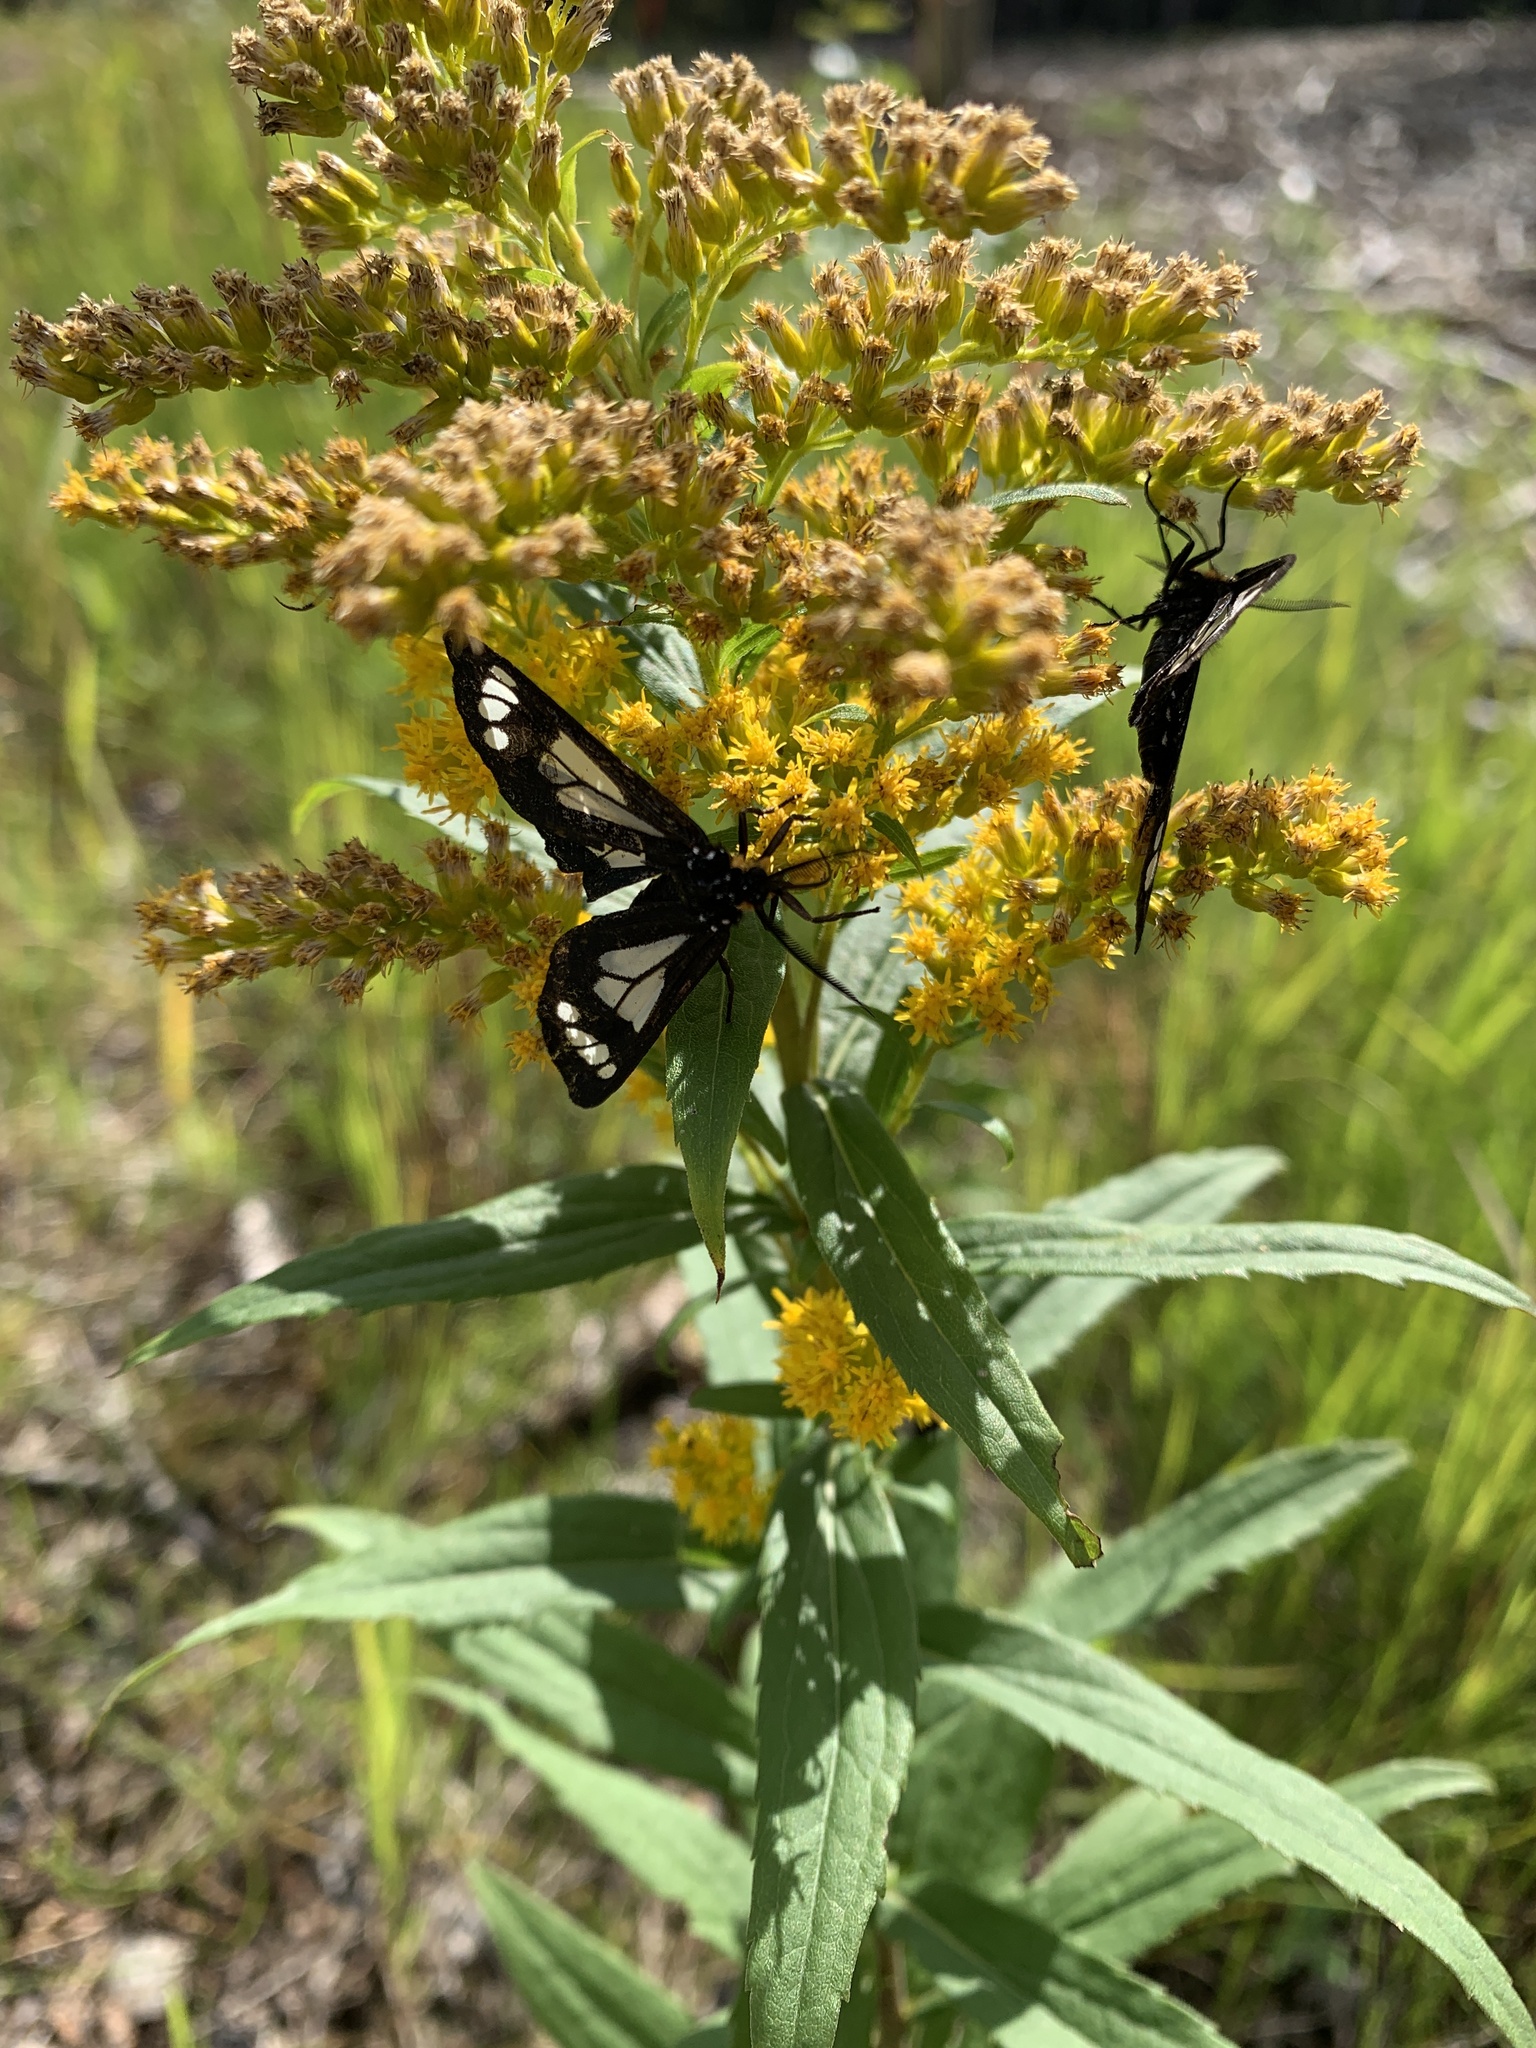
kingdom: Animalia
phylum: Arthropoda
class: Insecta
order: Lepidoptera
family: Erebidae
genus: Gnophaela
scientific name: Gnophaela vermiculata
